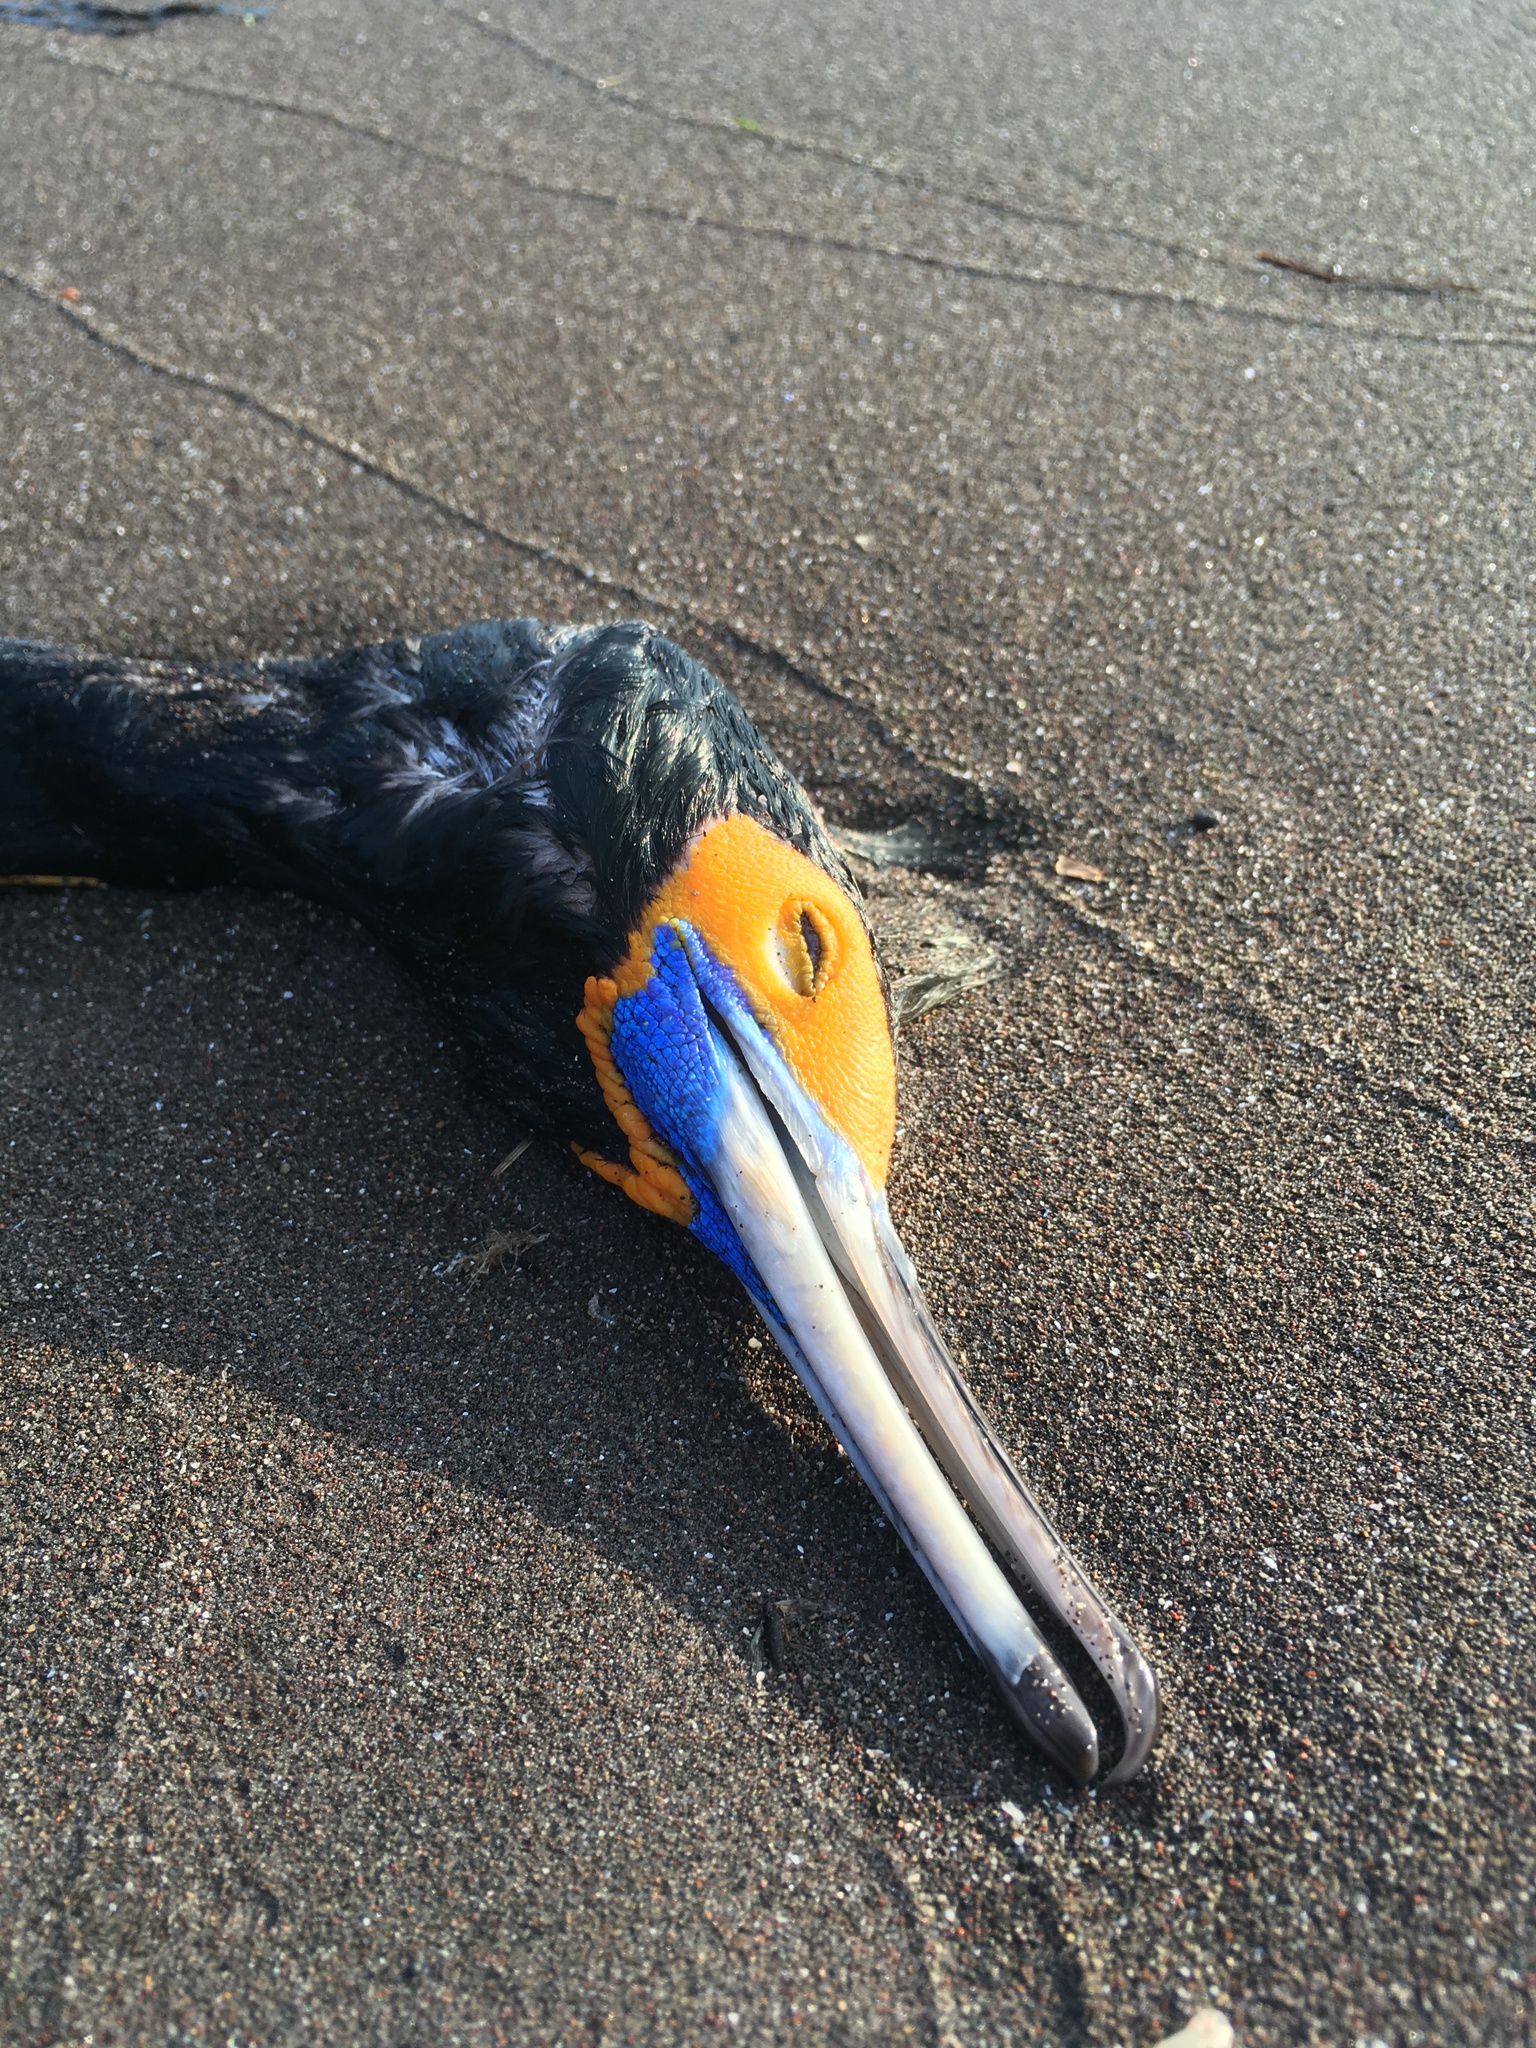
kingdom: Animalia
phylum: Chordata
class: Aves
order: Suliformes
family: Phalacrocoracidae
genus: Phalacrocorax
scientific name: Phalacrocorax urile
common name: Red-faced cormorant
